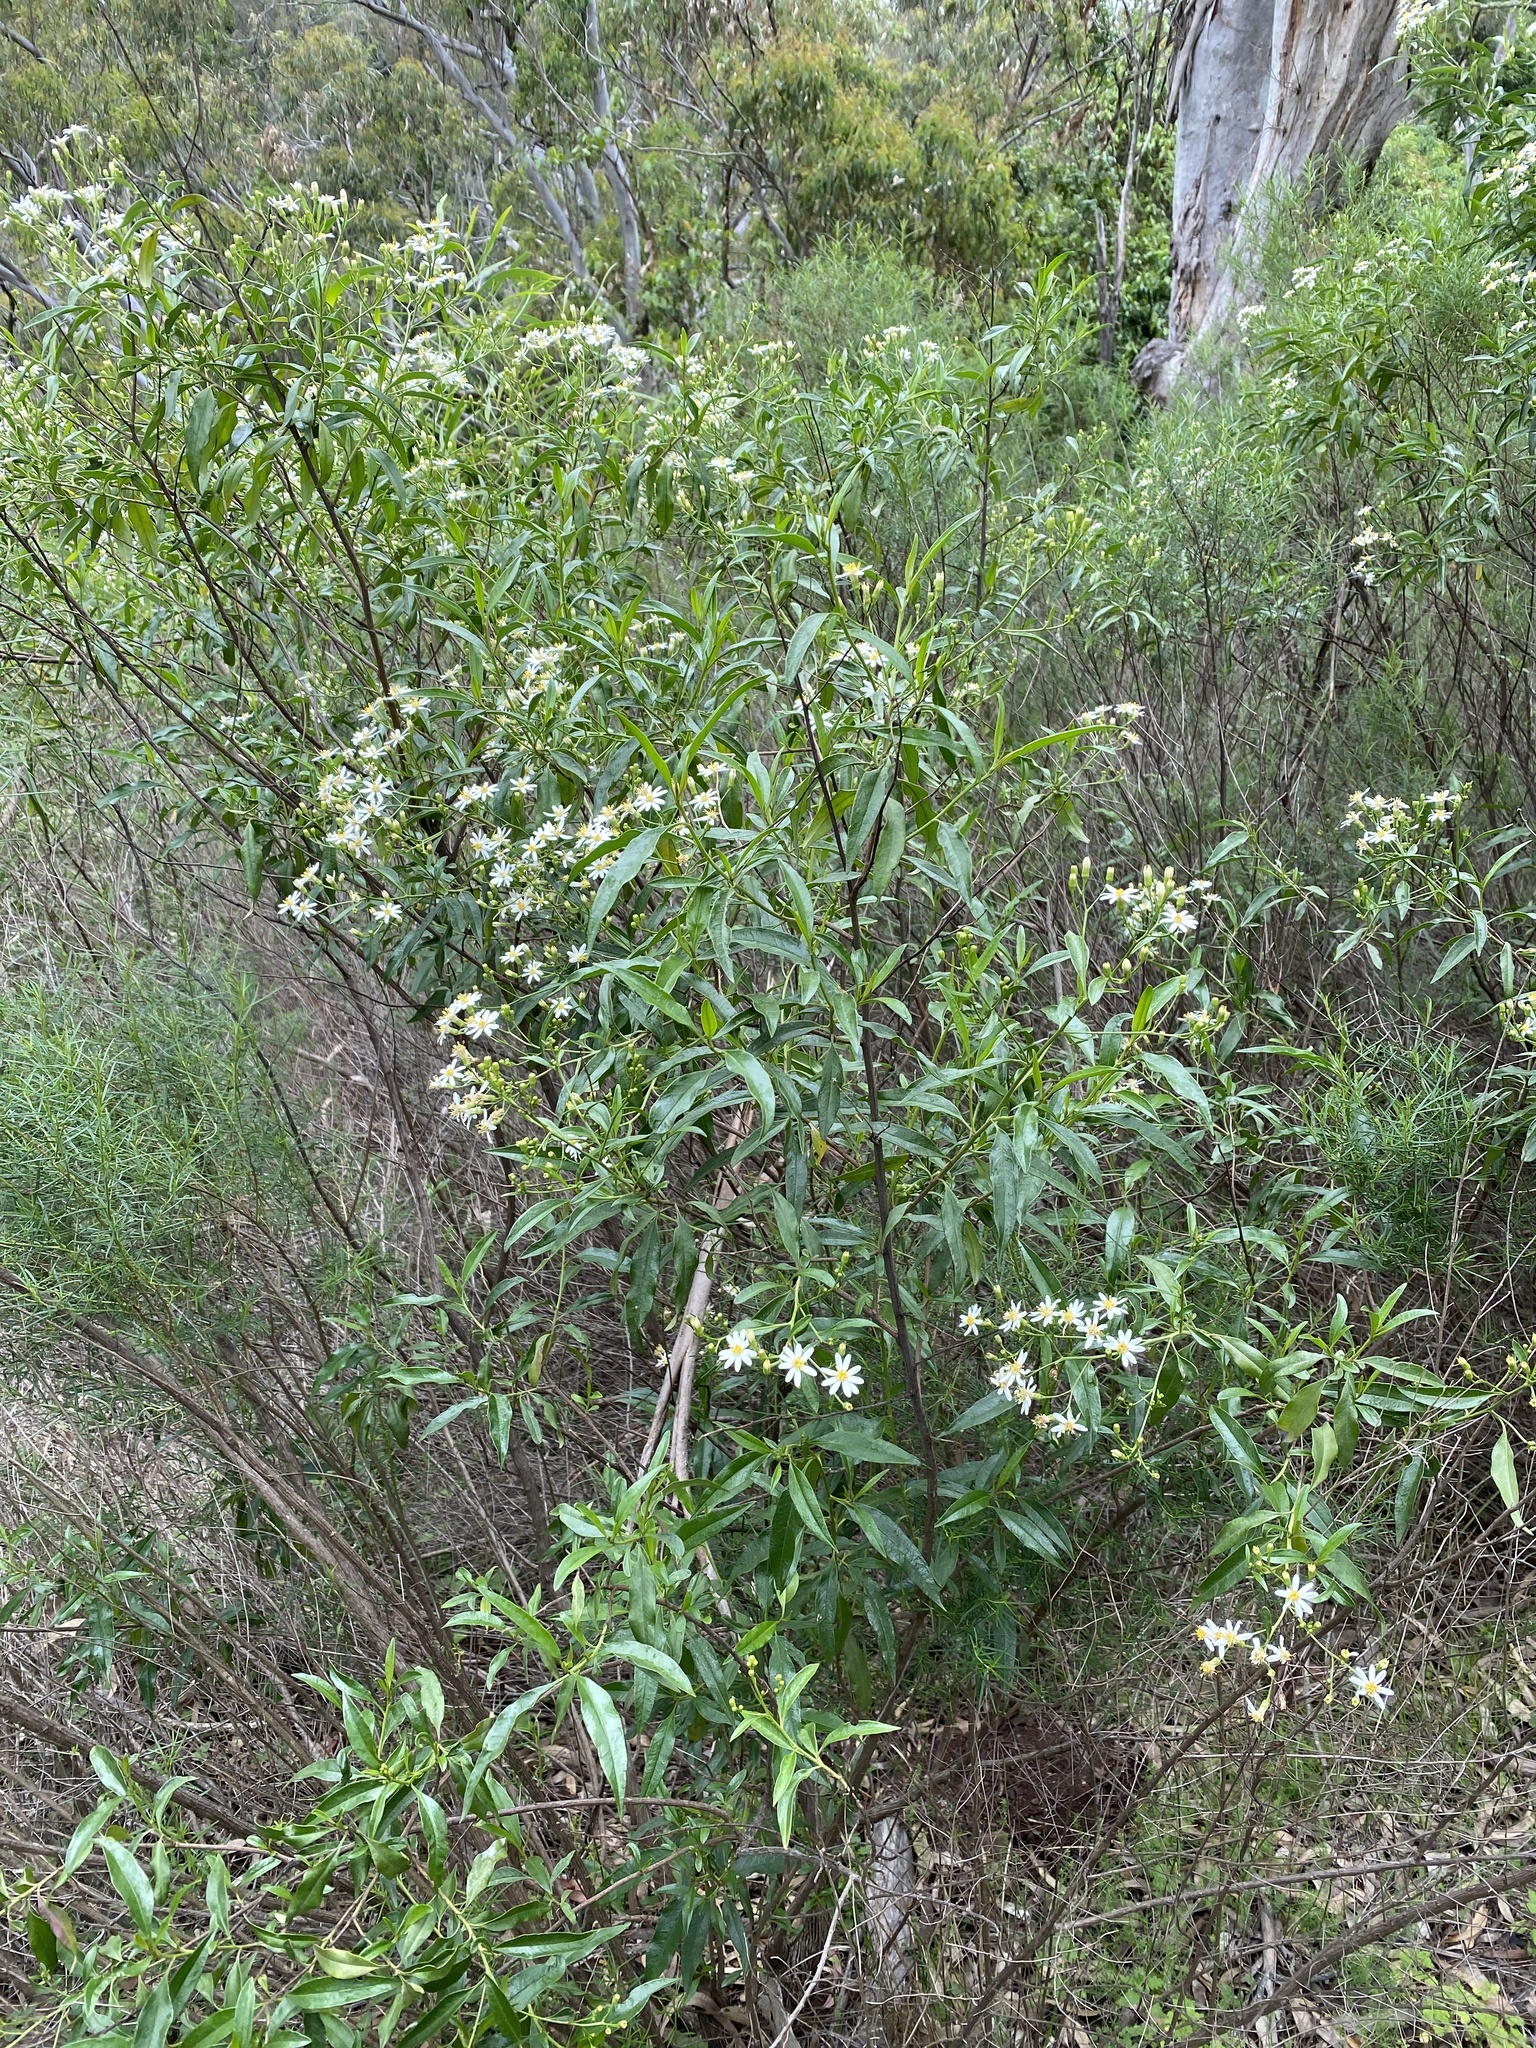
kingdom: Plantae
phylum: Tracheophyta
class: Magnoliopsida
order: Asterales
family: Asteraceae
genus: Phaseolaster
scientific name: Phaseolaster fulgens
